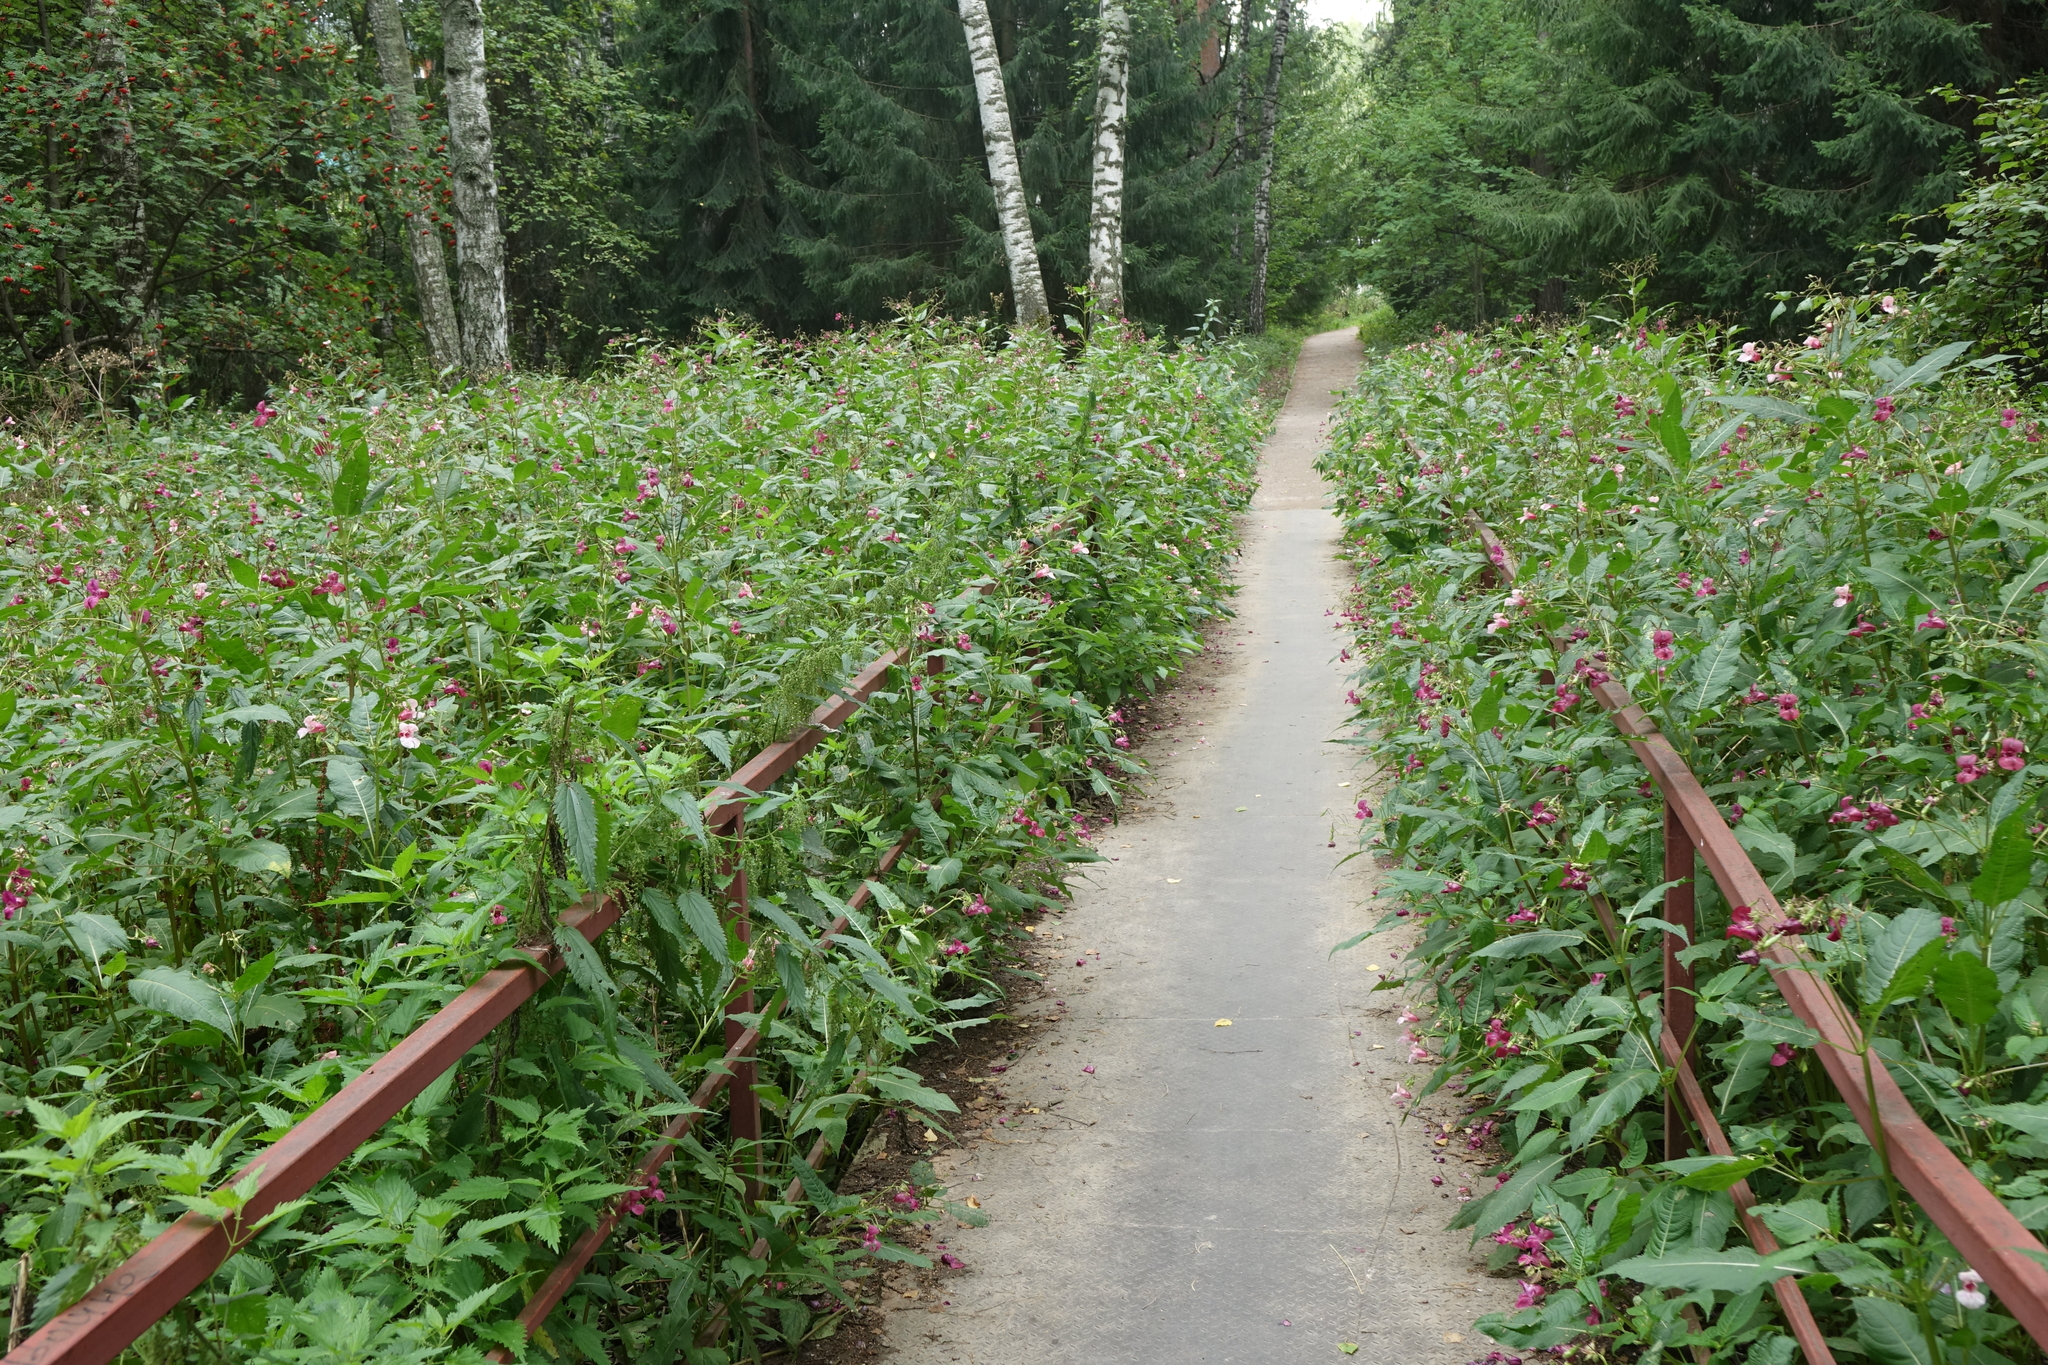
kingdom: Plantae
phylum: Tracheophyta
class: Magnoliopsida
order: Ericales
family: Balsaminaceae
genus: Impatiens
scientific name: Impatiens glandulifera
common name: Himalayan balsam
